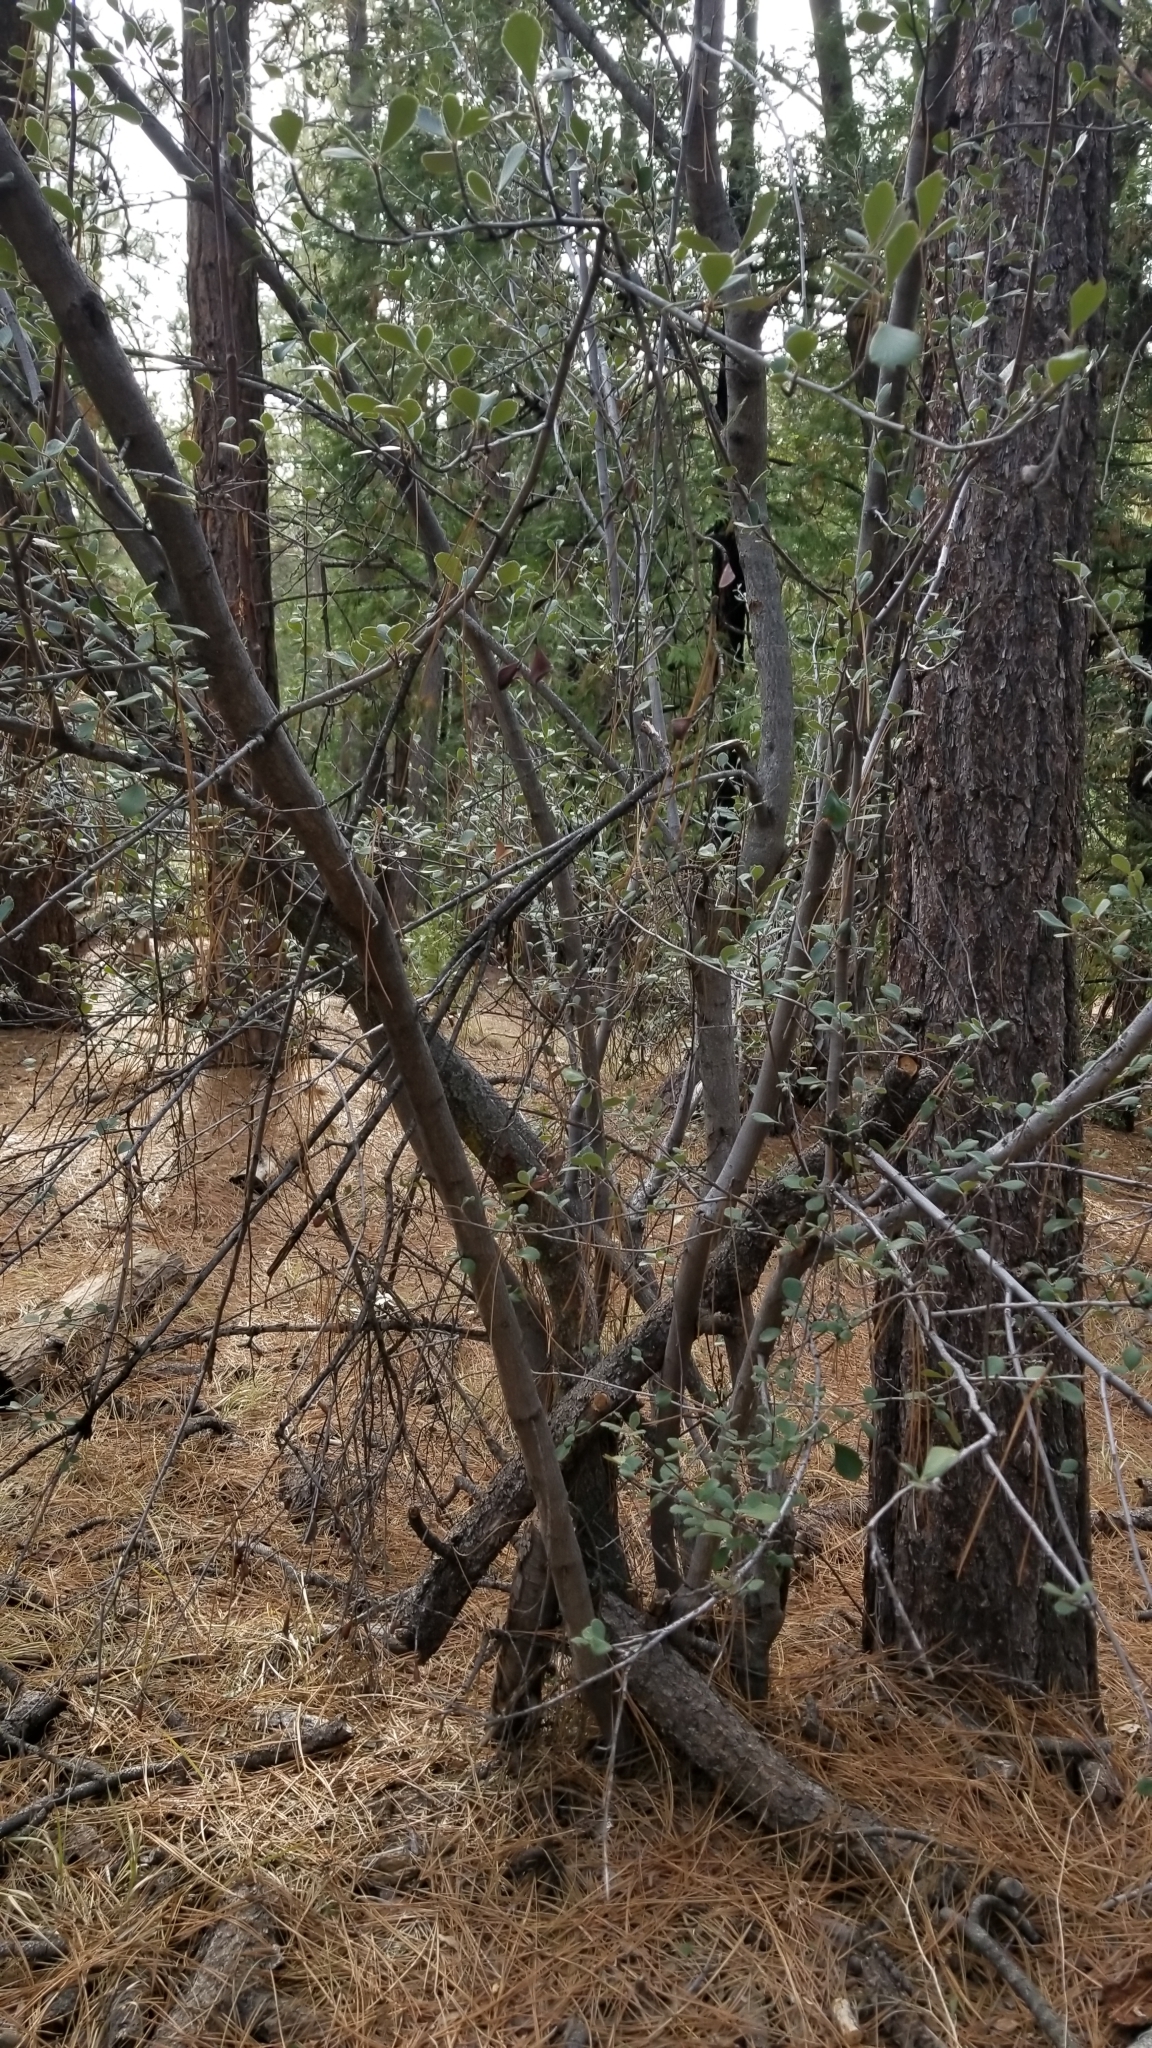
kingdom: Plantae
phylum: Tracheophyta
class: Magnoliopsida
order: Rosales
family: Rosaceae
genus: Cercocarpus
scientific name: Cercocarpus betuloides
